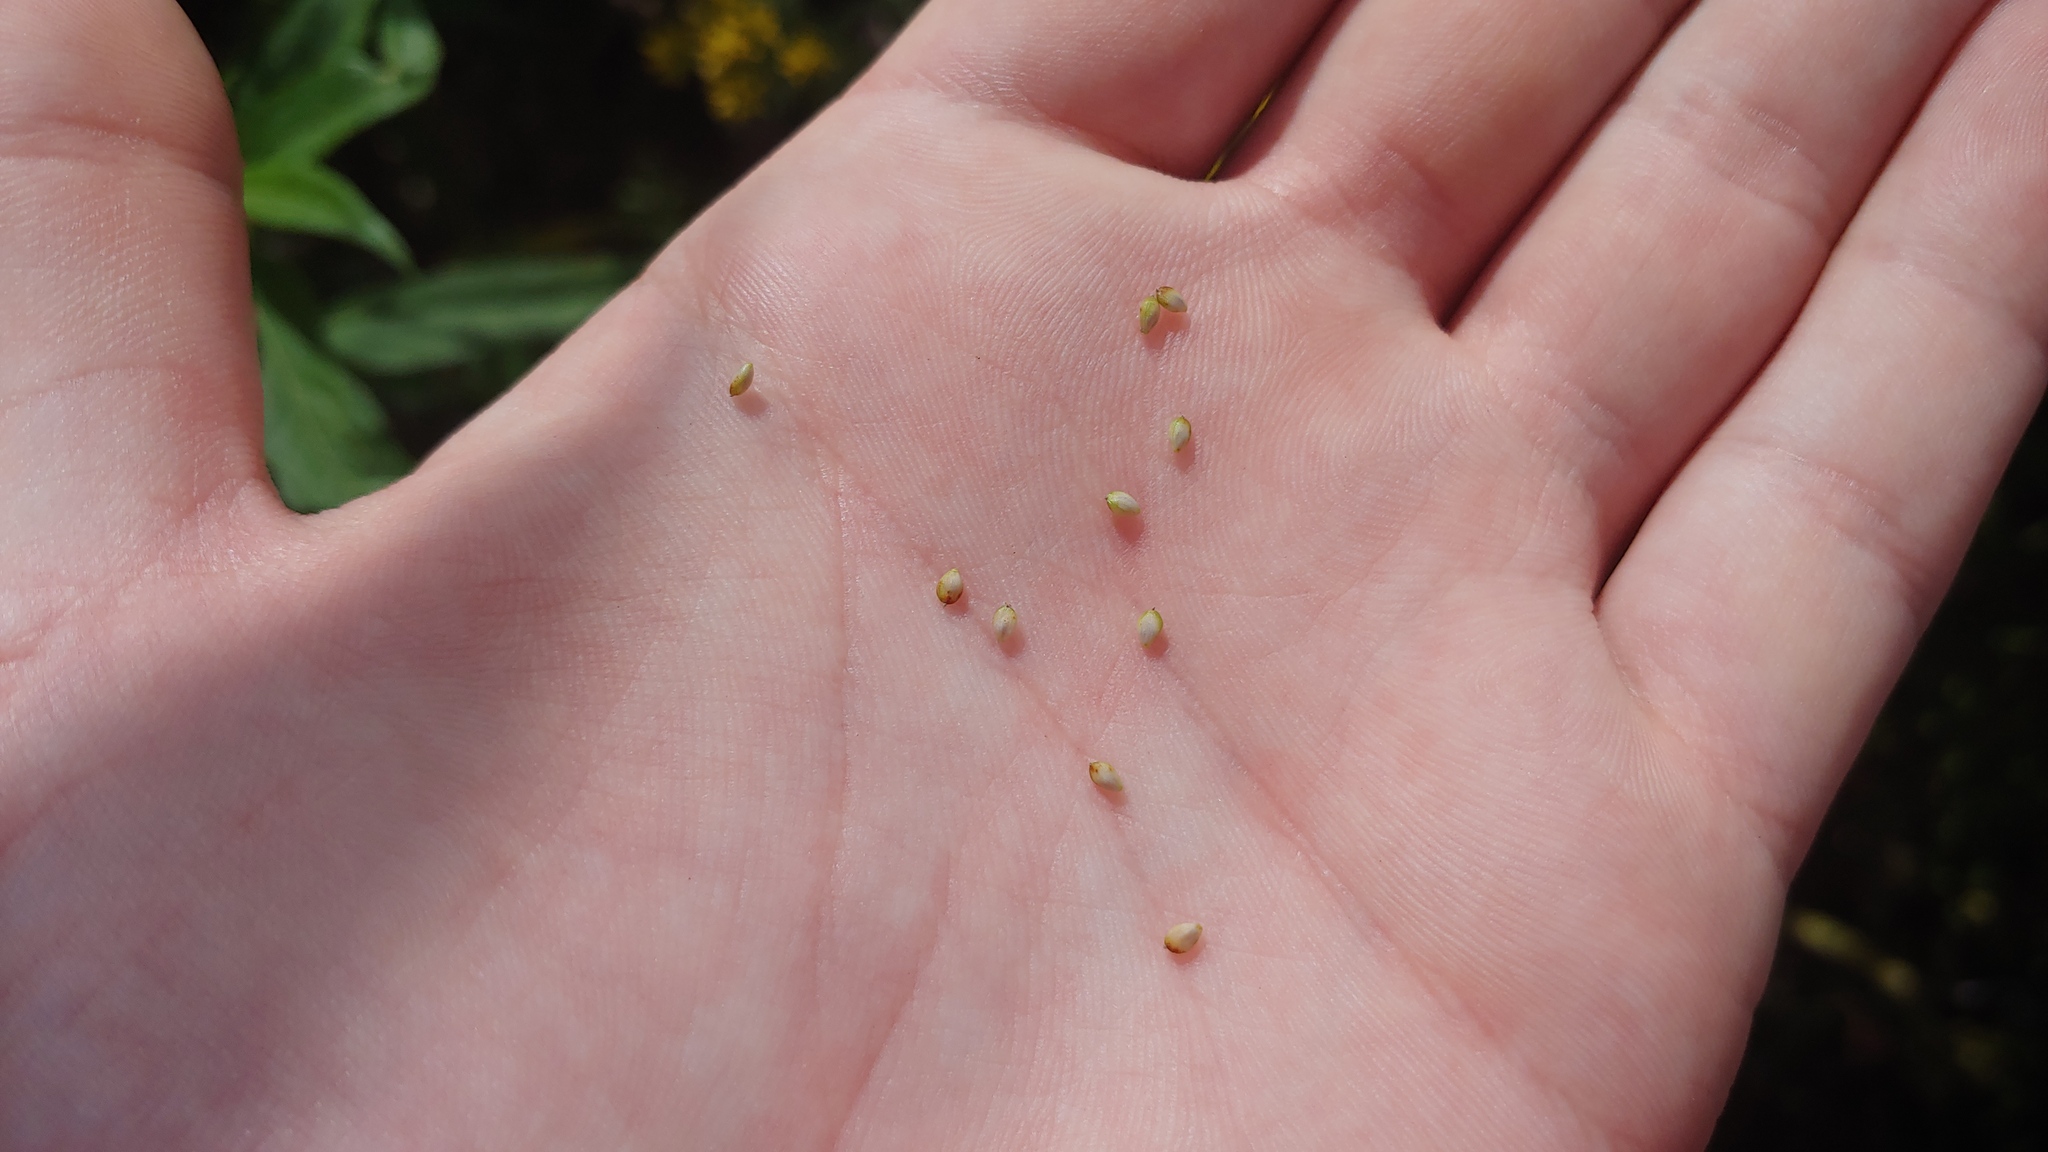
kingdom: Plantae
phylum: Tracheophyta
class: Liliopsida
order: Poales
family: Cyperaceae
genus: Carex
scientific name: Carex hirsutella
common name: Fuzzy wuzzy sedge
